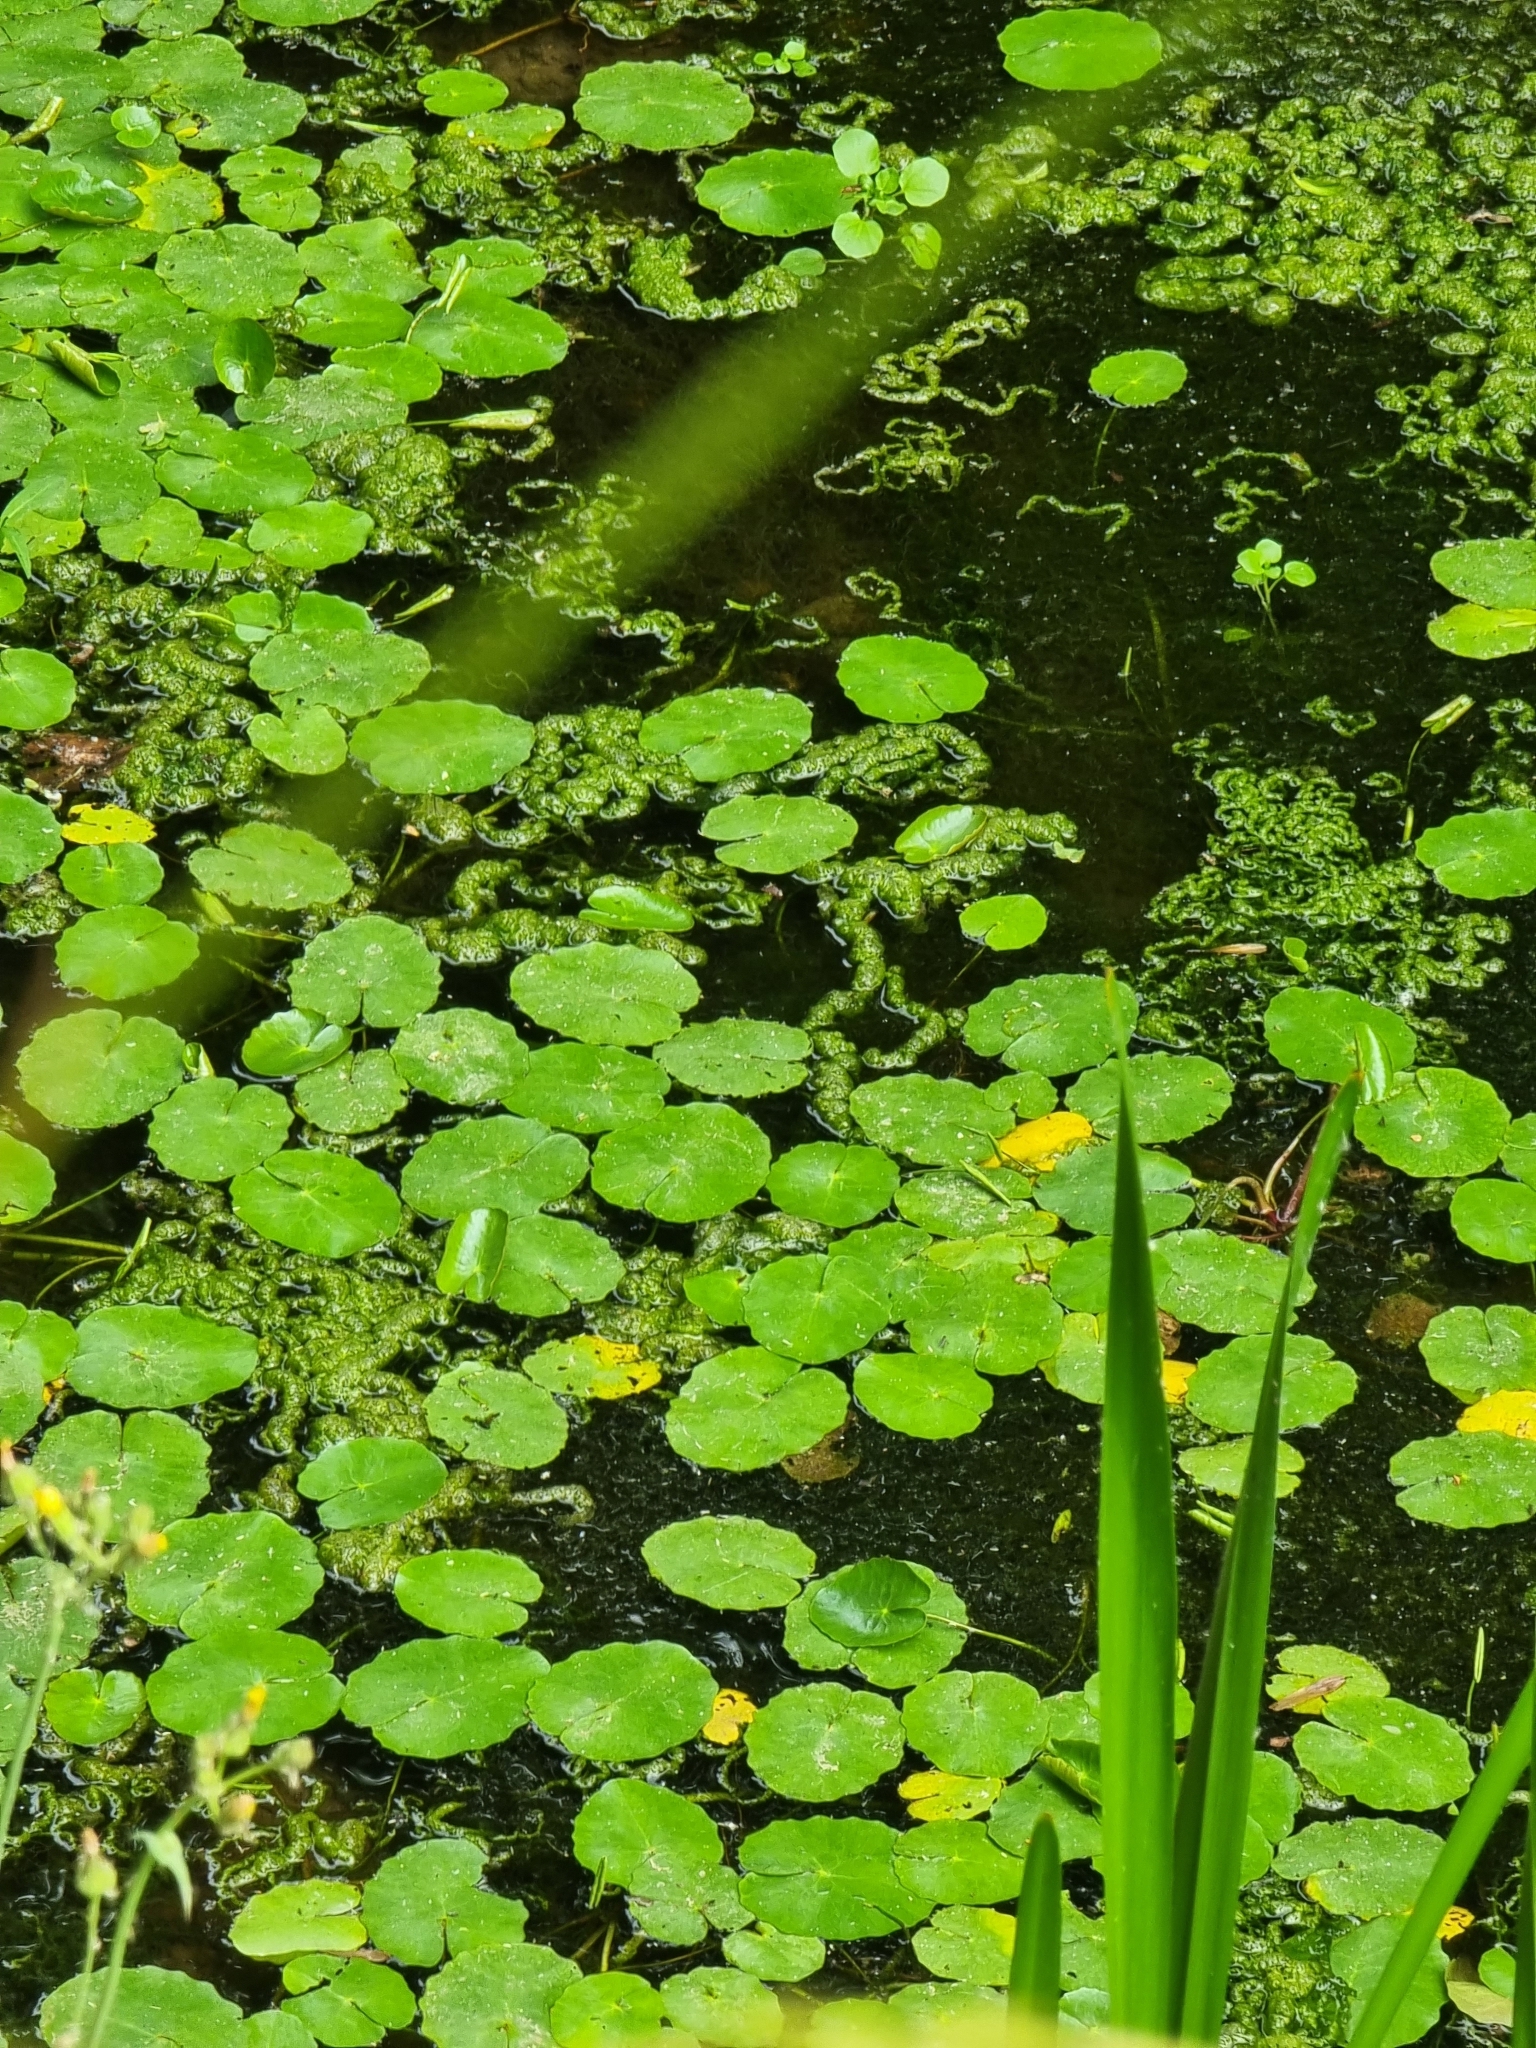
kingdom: Plantae
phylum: Tracheophyta
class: Magnoliopsida
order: Asterales
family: Menyanthaceae
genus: Nymphoides
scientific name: Nymphoides peltata
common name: Fringed water-lily
